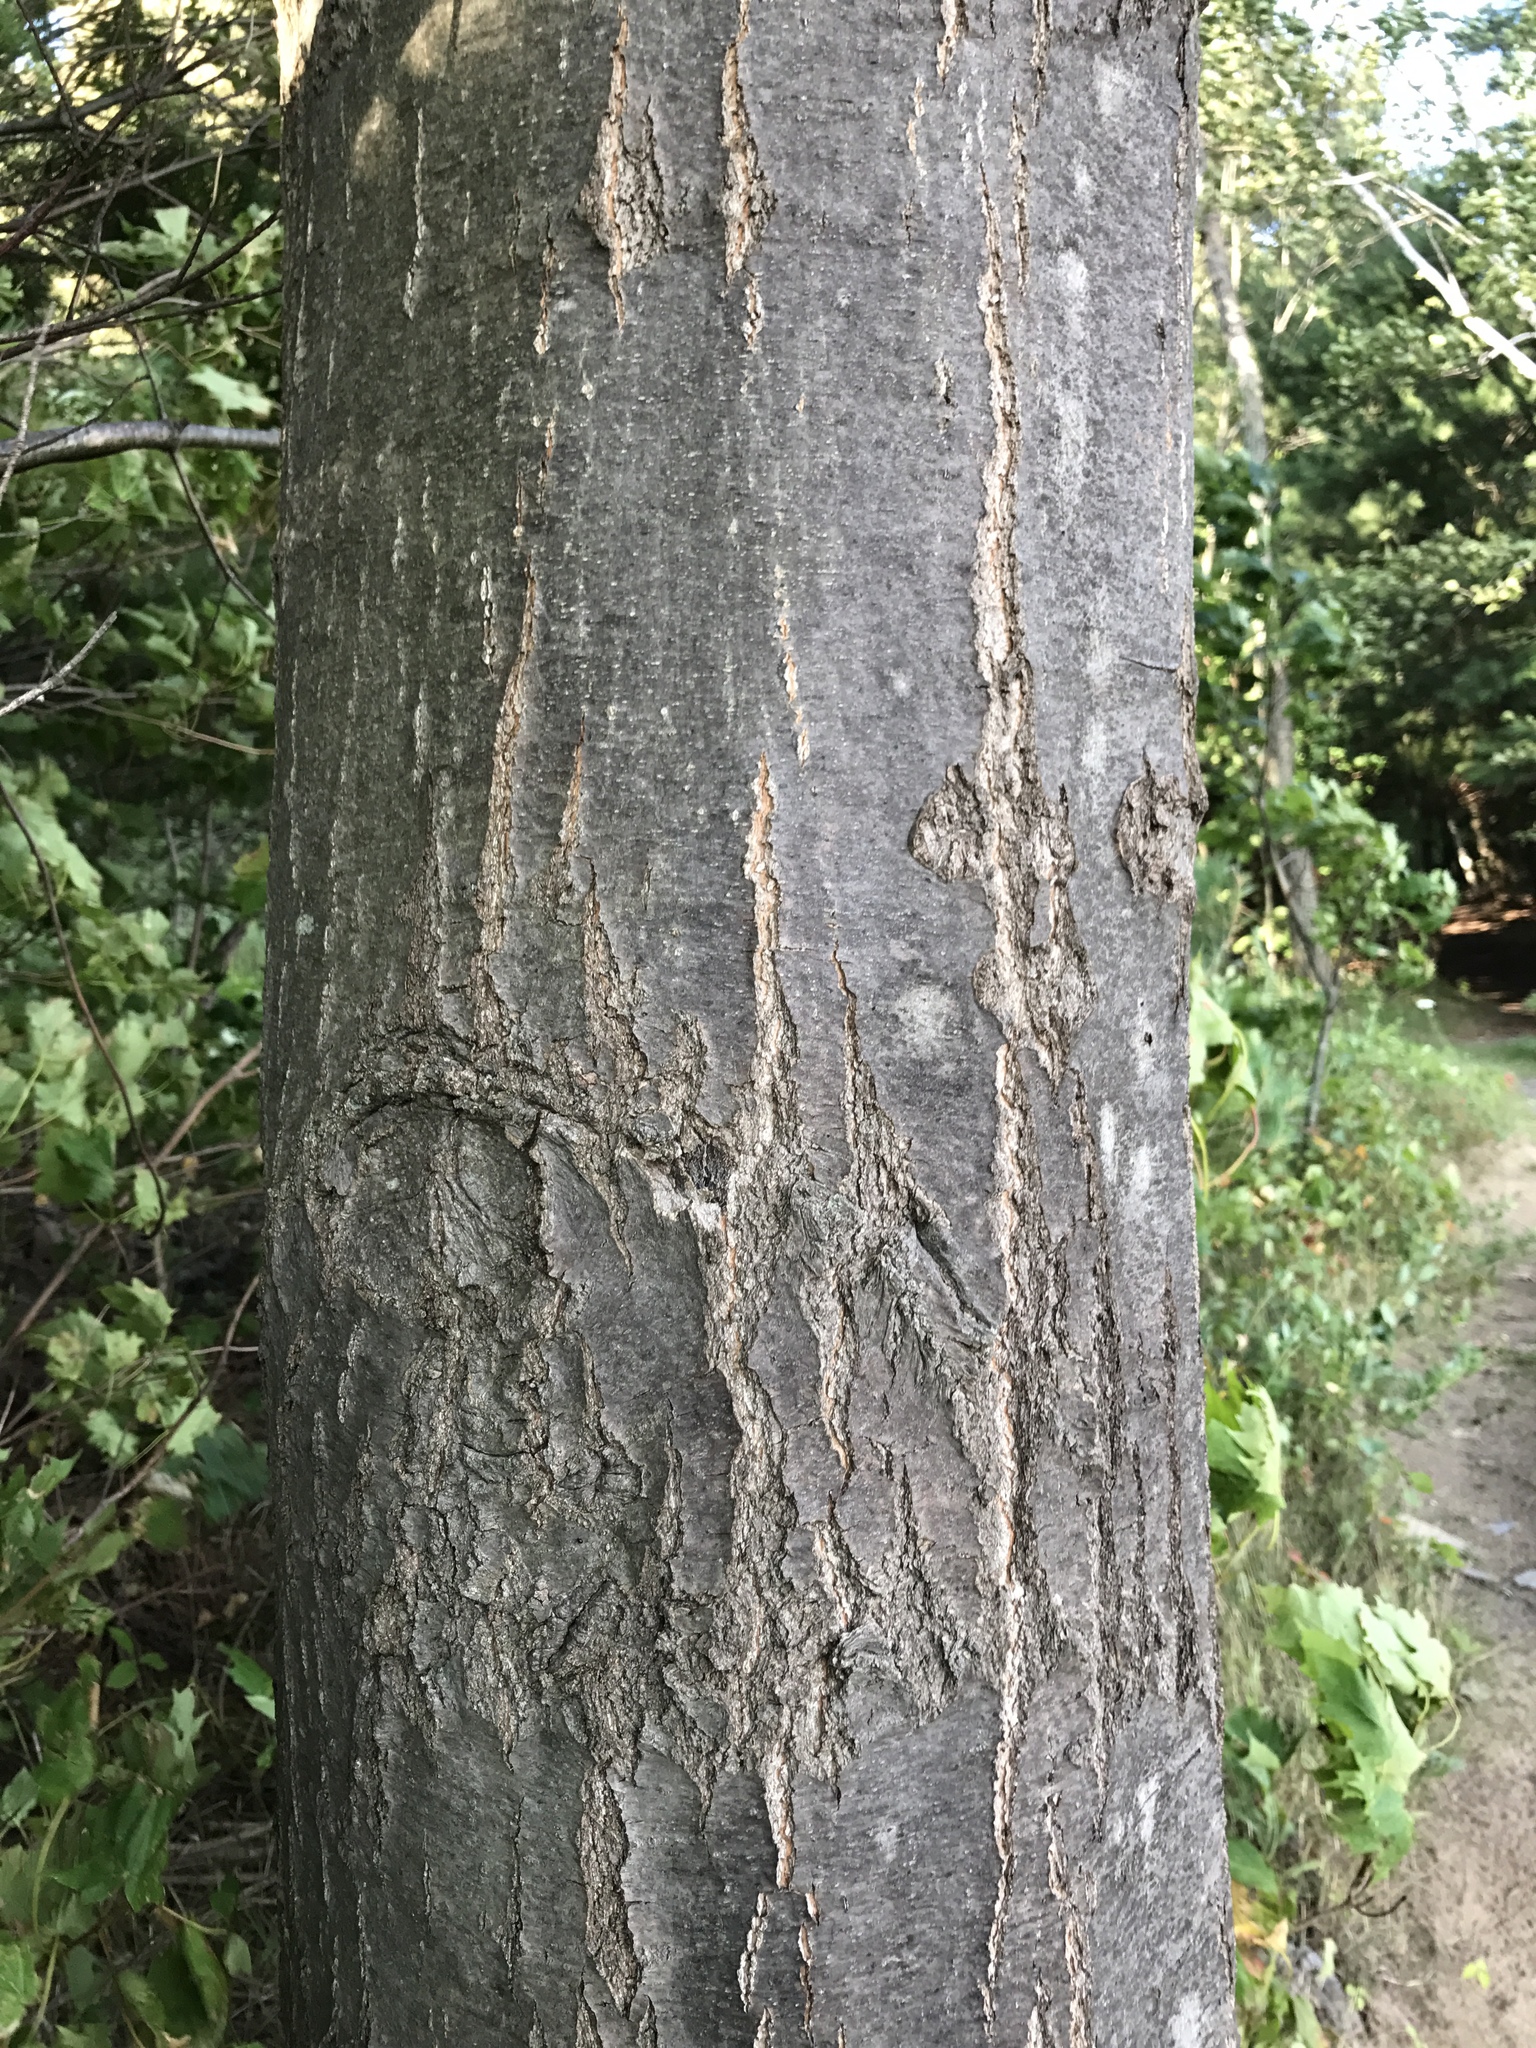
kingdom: Plantae
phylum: Tracheophyta
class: Magnoliopsida
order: Fagales
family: Fagaceae
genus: Quercus
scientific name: Quercus rubra
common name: Red oak
